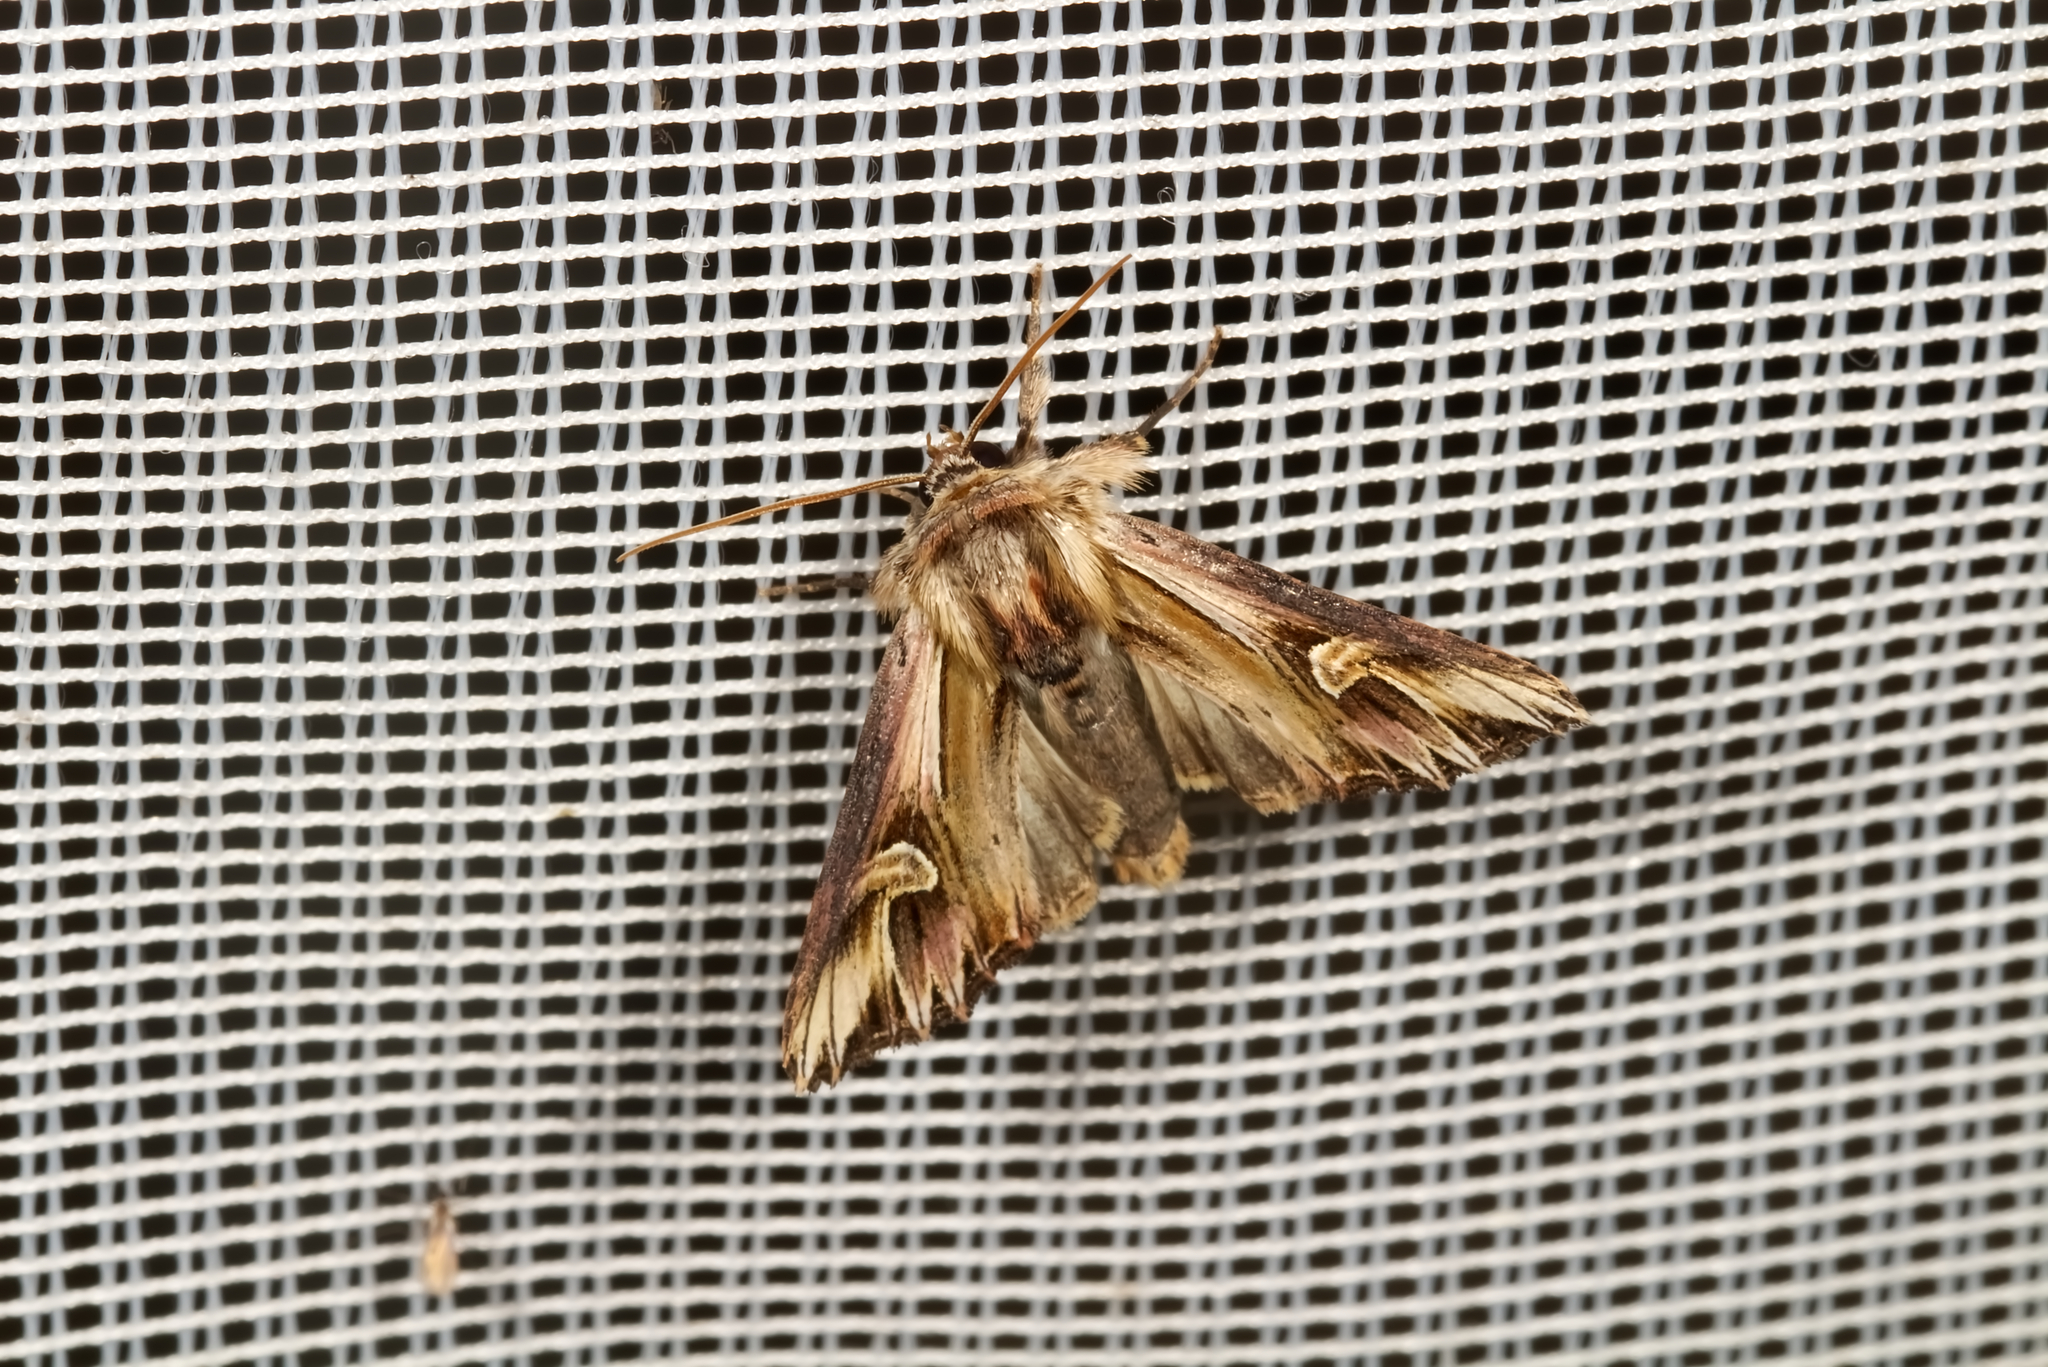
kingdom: Animalia
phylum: Arthropoda
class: Insecta
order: Lepidoptera
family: Noctuidae
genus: Actinotia
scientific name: Actinotia polyodon
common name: Purple cloud
